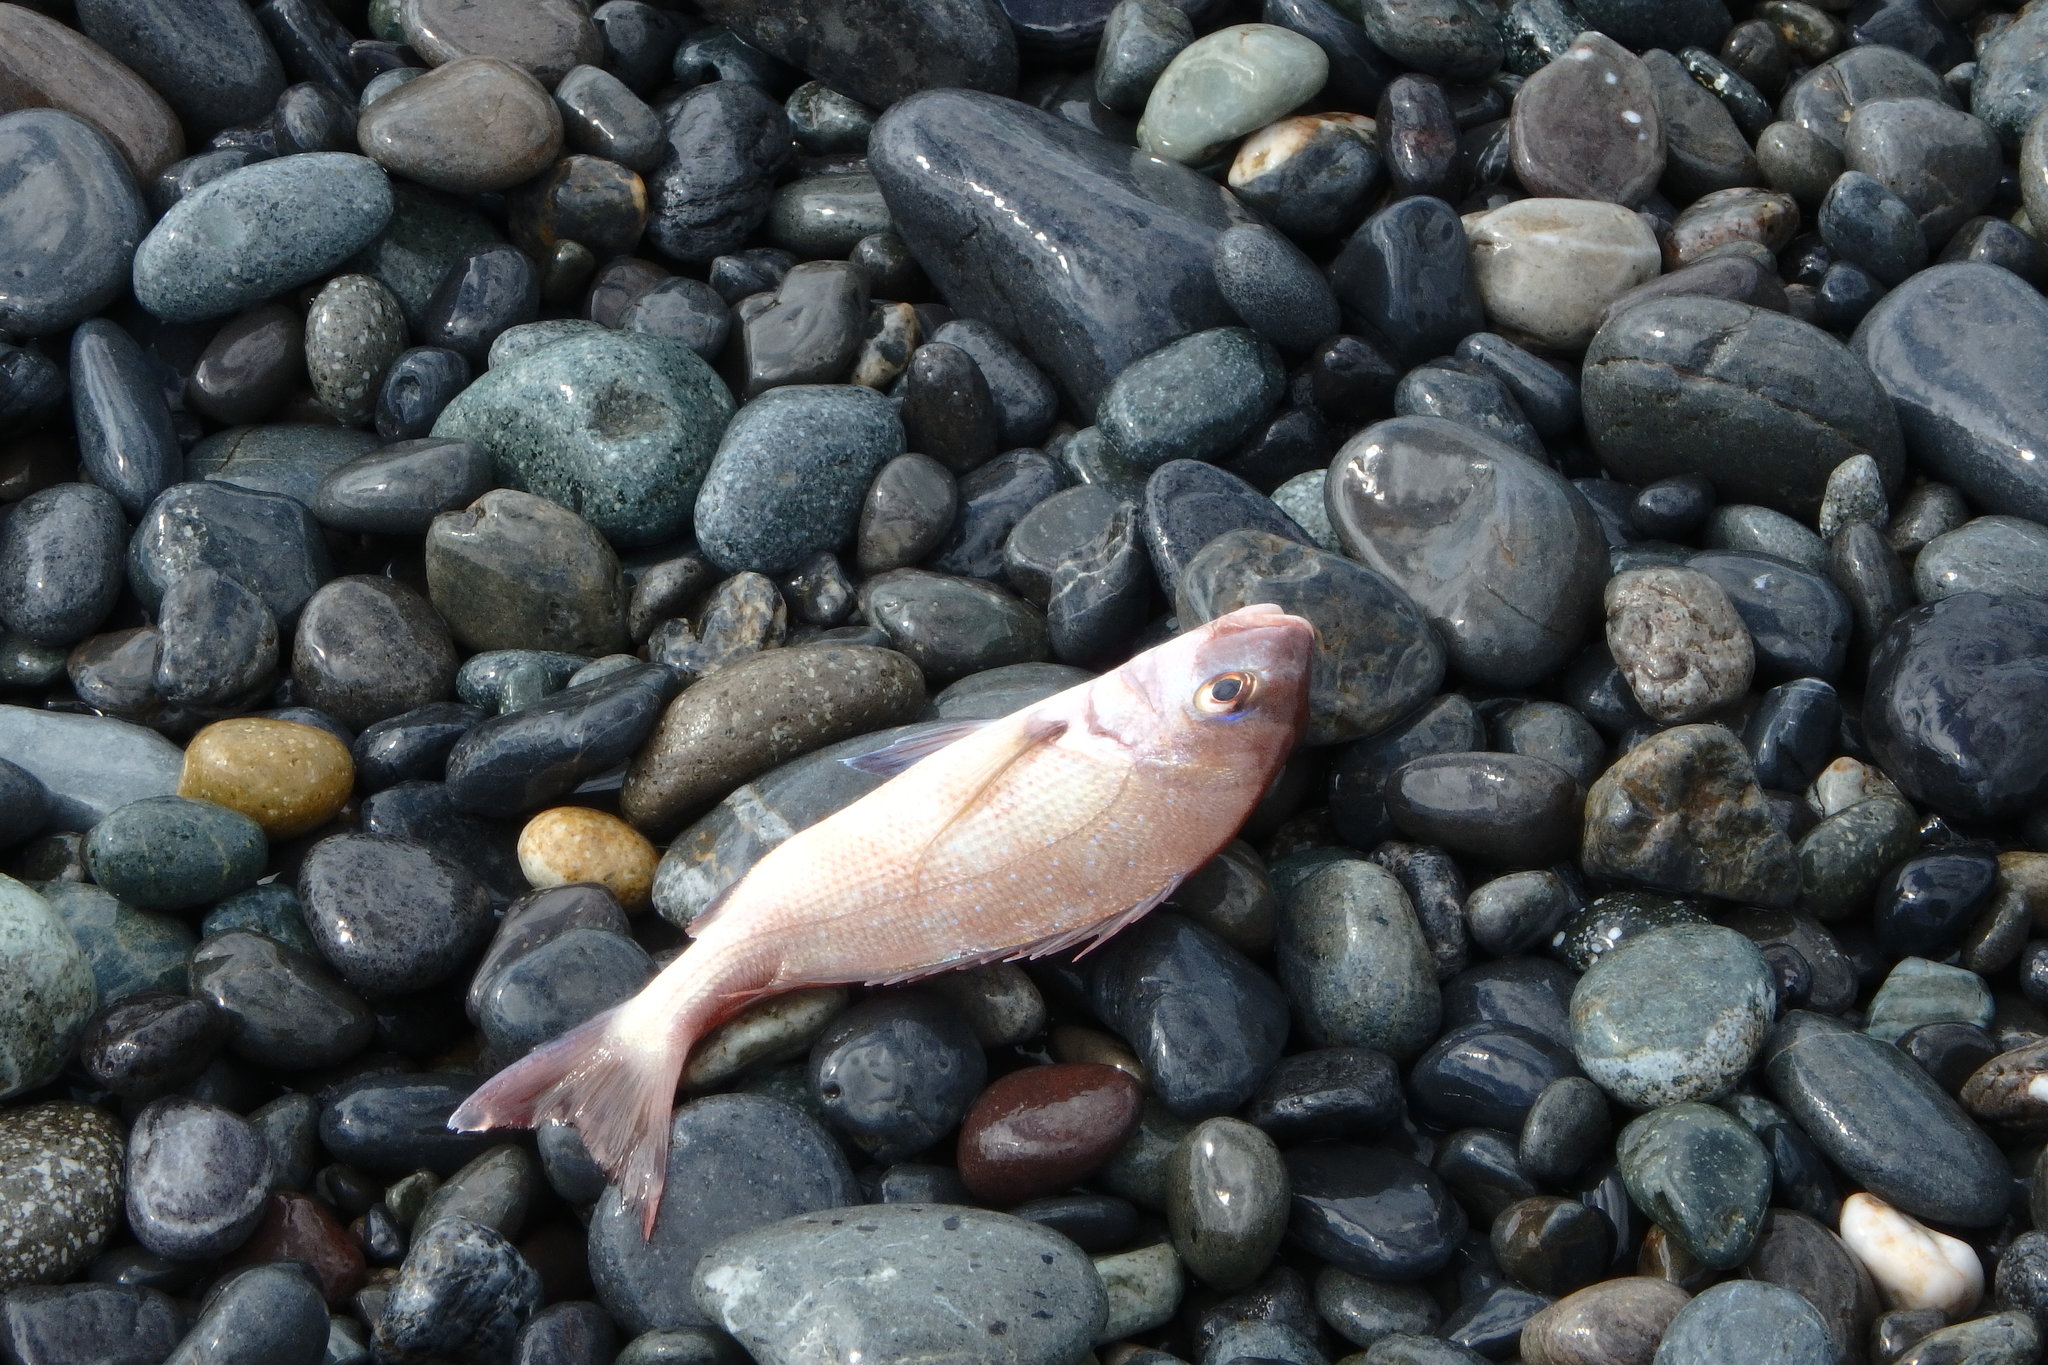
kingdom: Animalia
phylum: Chordata
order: Perciformes
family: Sparidae
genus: Pagrus
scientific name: Pagrus major
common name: Red sea bream
